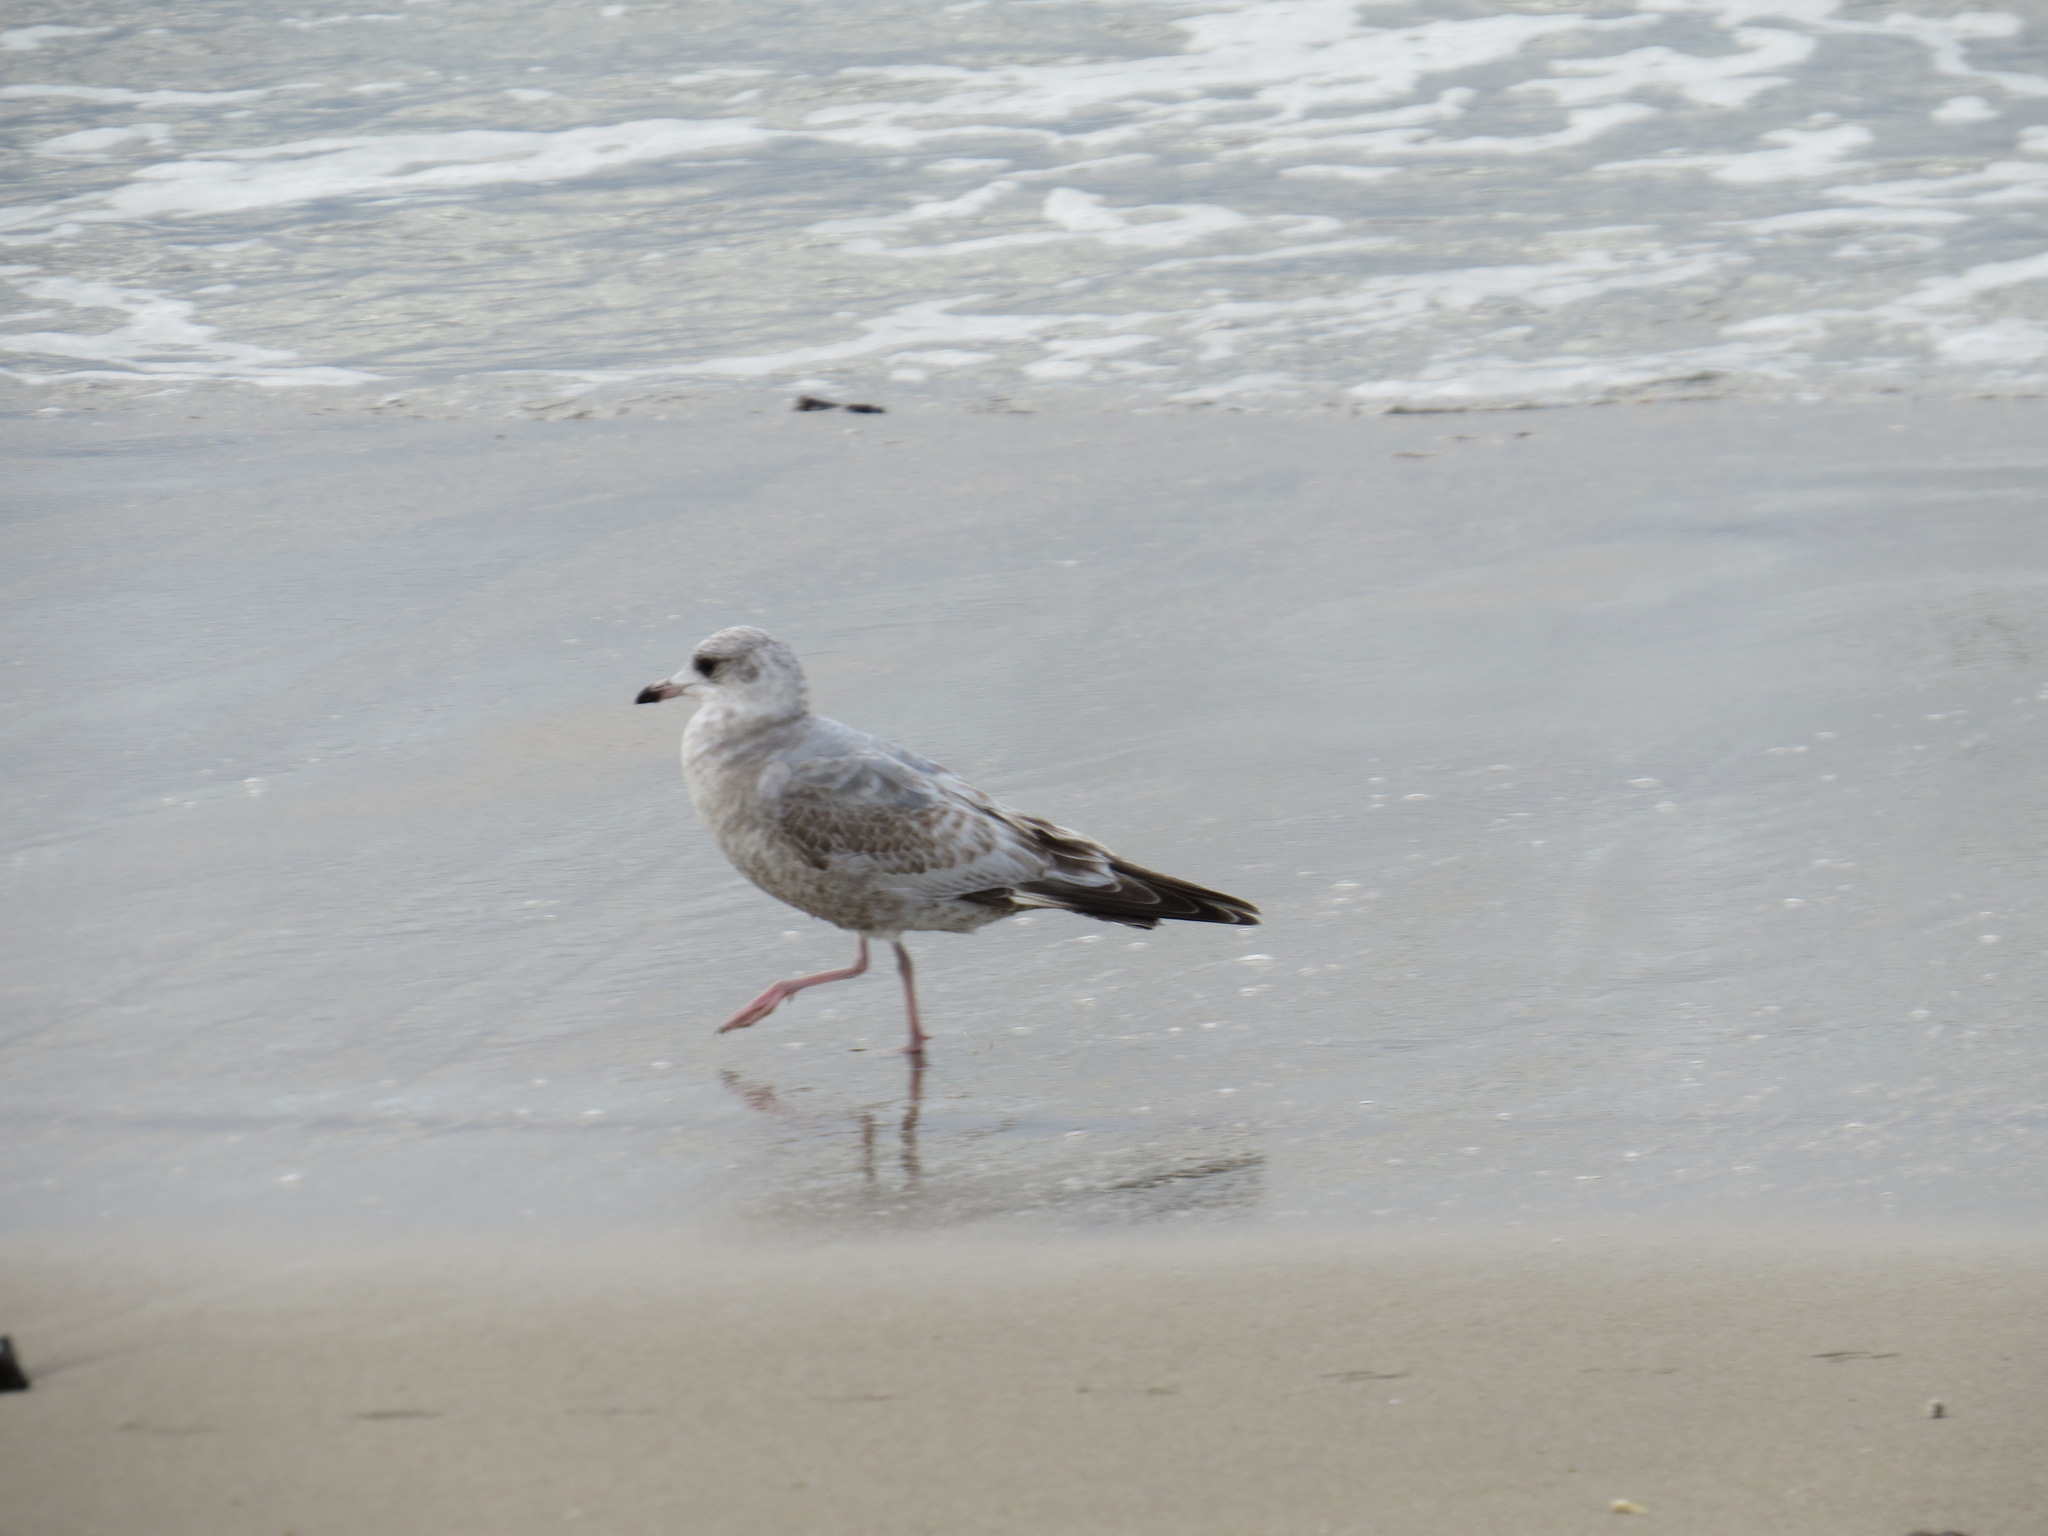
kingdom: Animalia
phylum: Chordata
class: Aves
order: Charadriiformes
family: Laridae
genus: Larus
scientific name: Larus brachyrhynchus
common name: Short-billed gull
